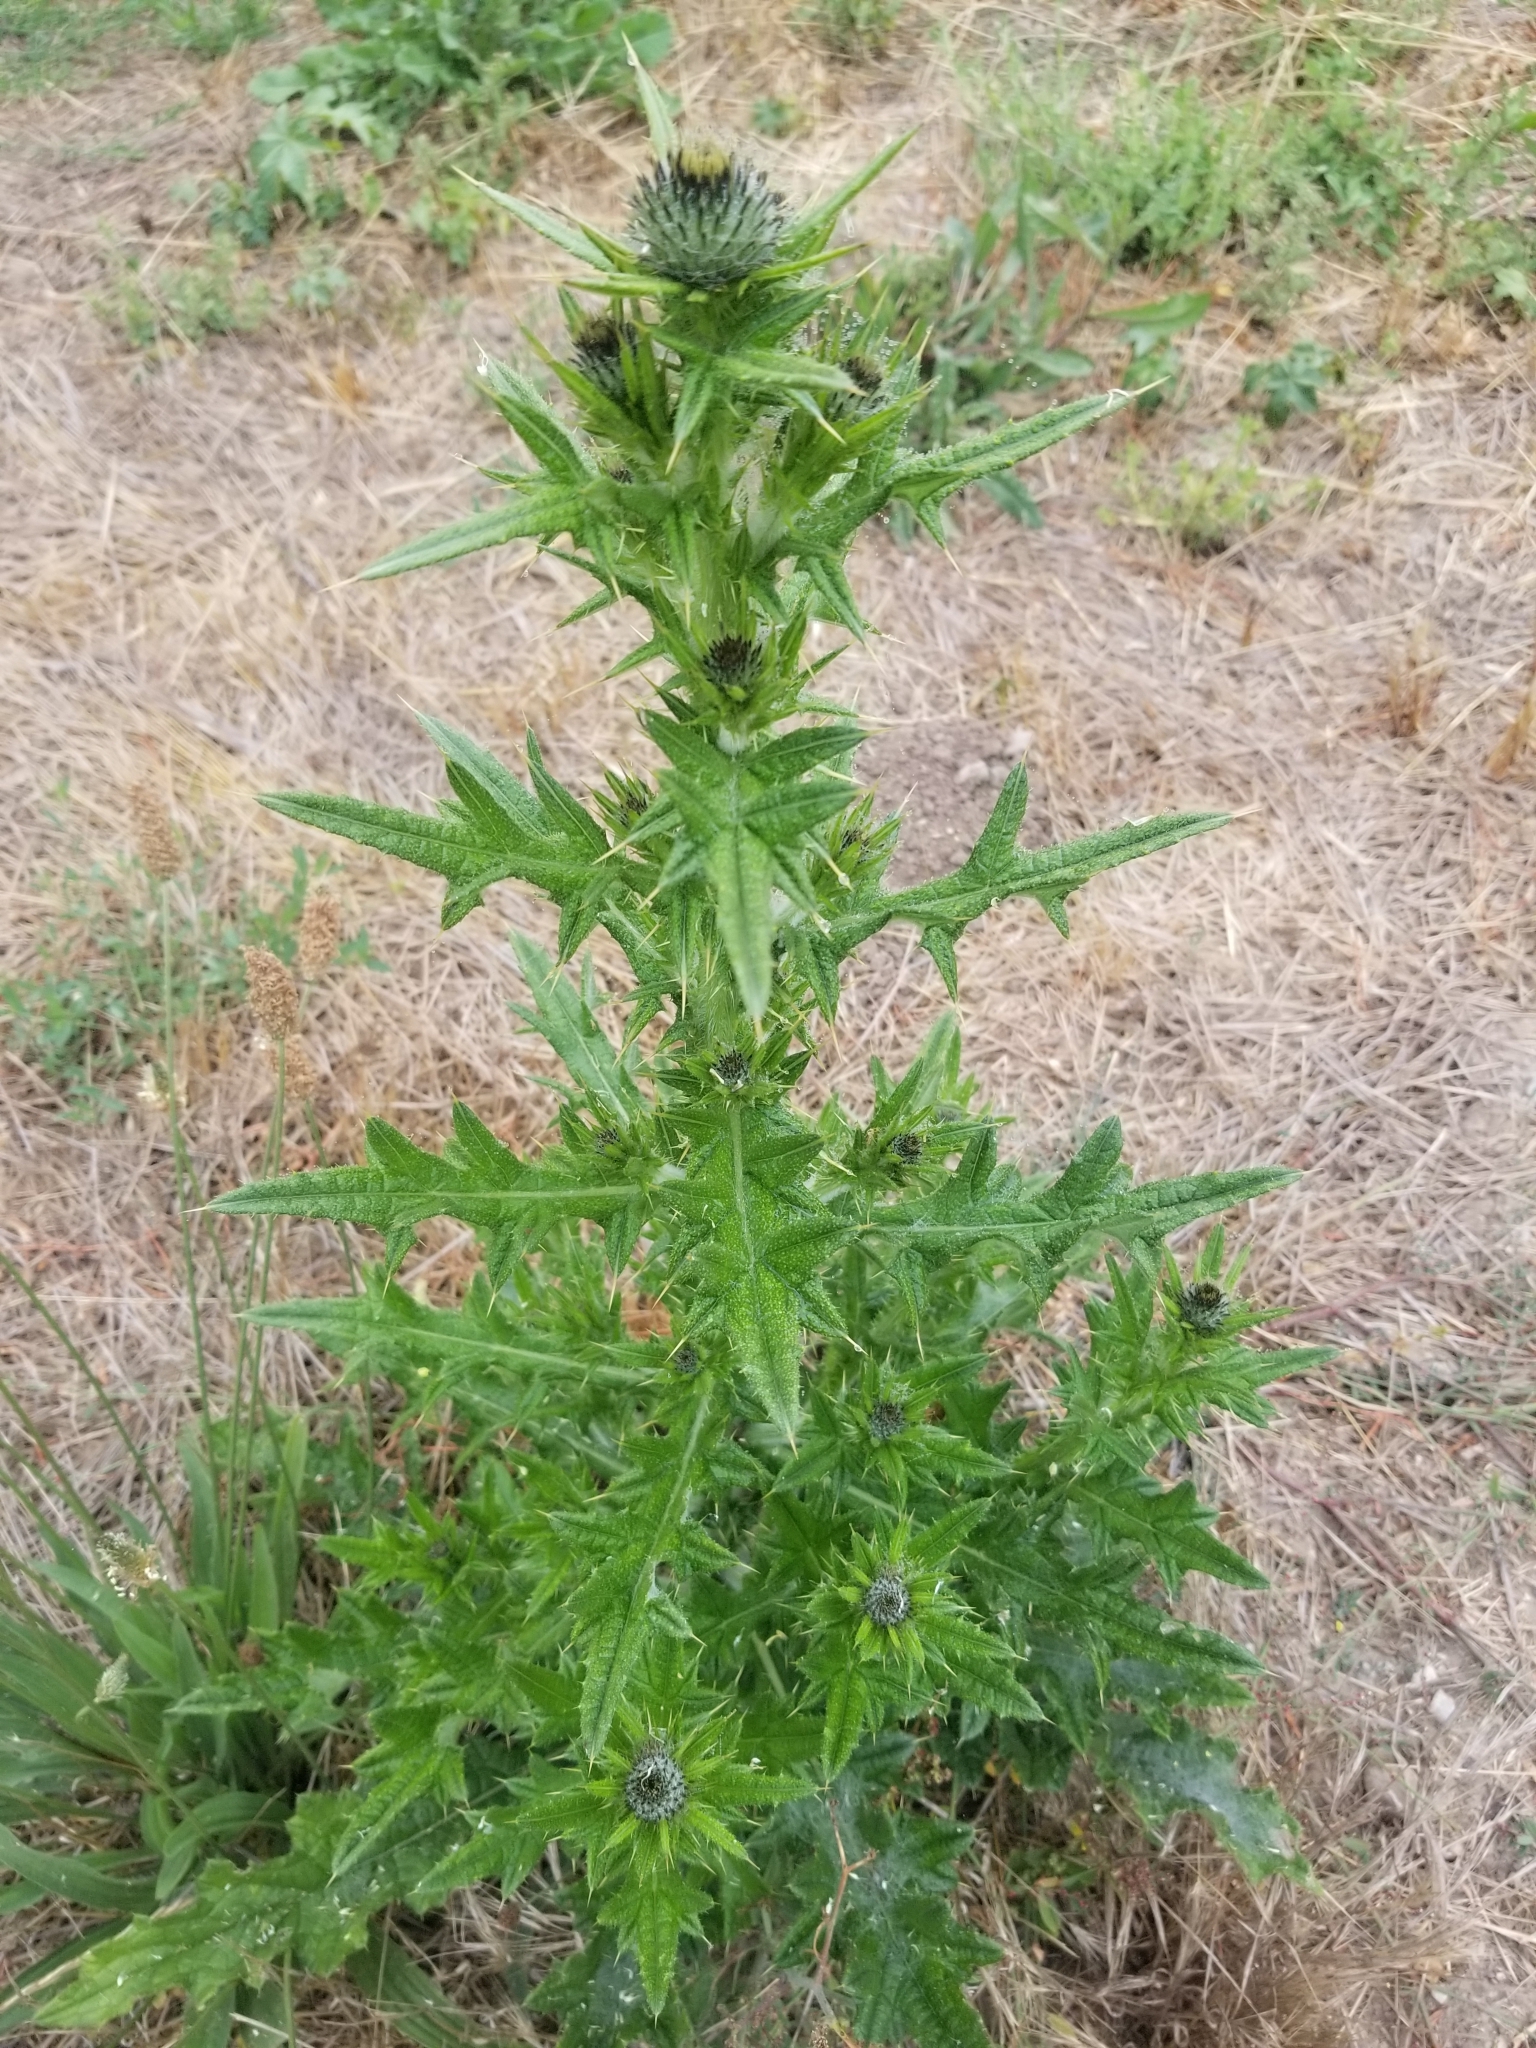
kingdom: Plantae
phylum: Tracheophyta
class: Magnoliopsida
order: Asterales
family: Asteraceae
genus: Cirsium
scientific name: Cirsium vulgare
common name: Bull thistle
